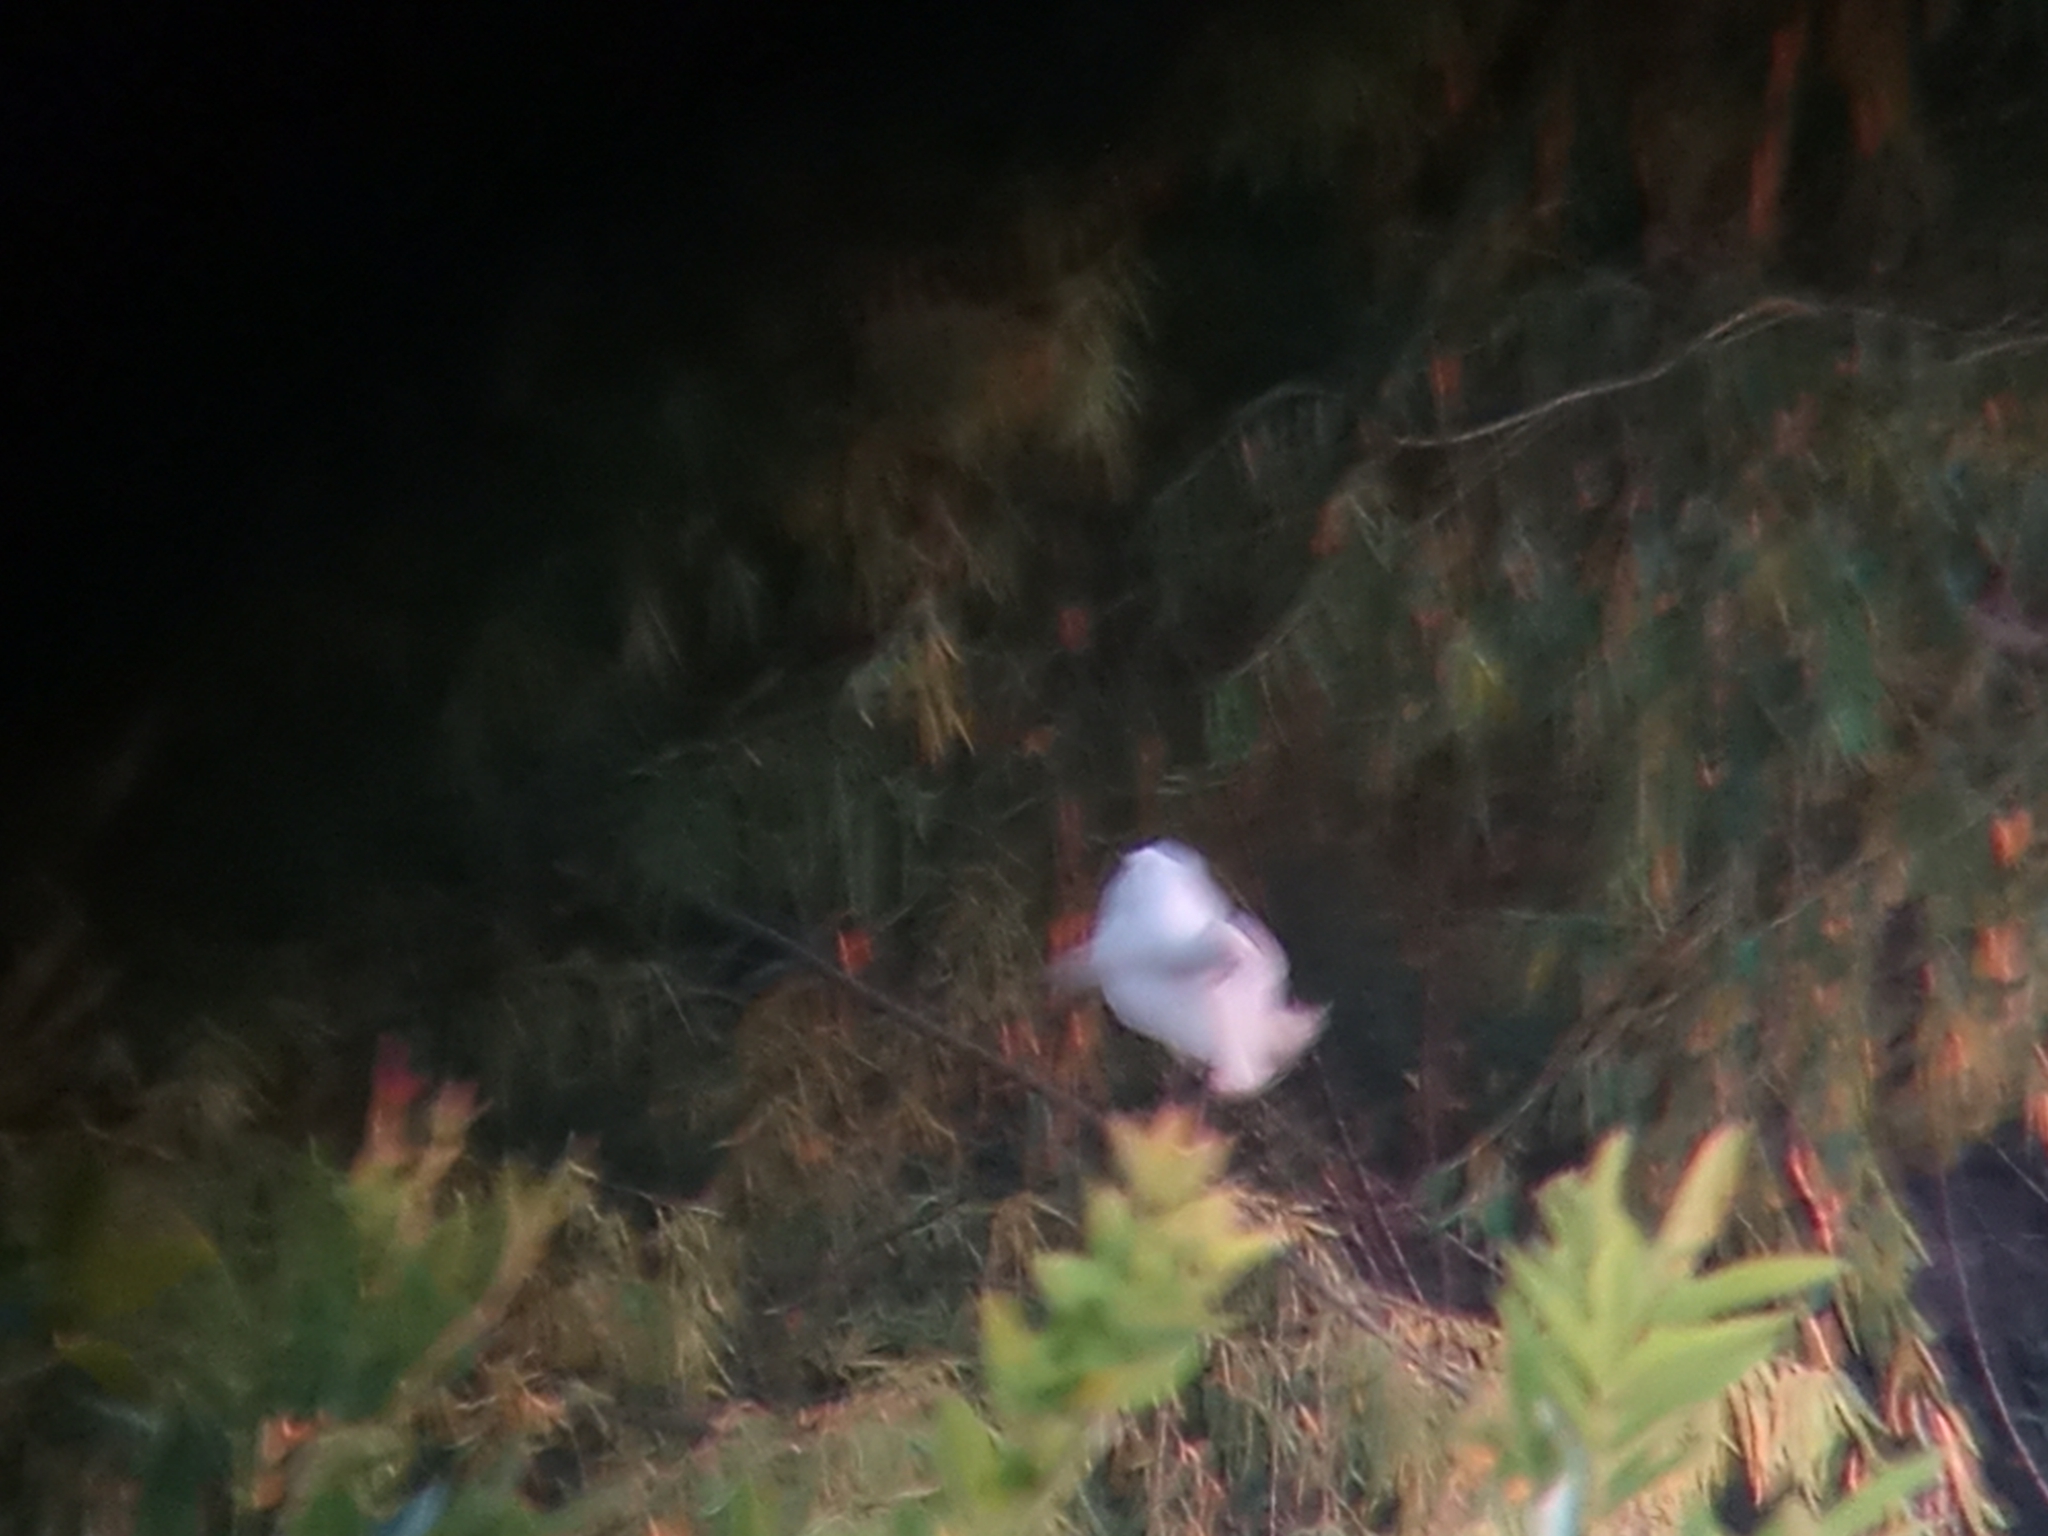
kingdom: Animalia
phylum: Chordata
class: Aves
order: Pelecaniformes
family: Ardeidae
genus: Egretta
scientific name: Egretta thula
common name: Snowy egret
